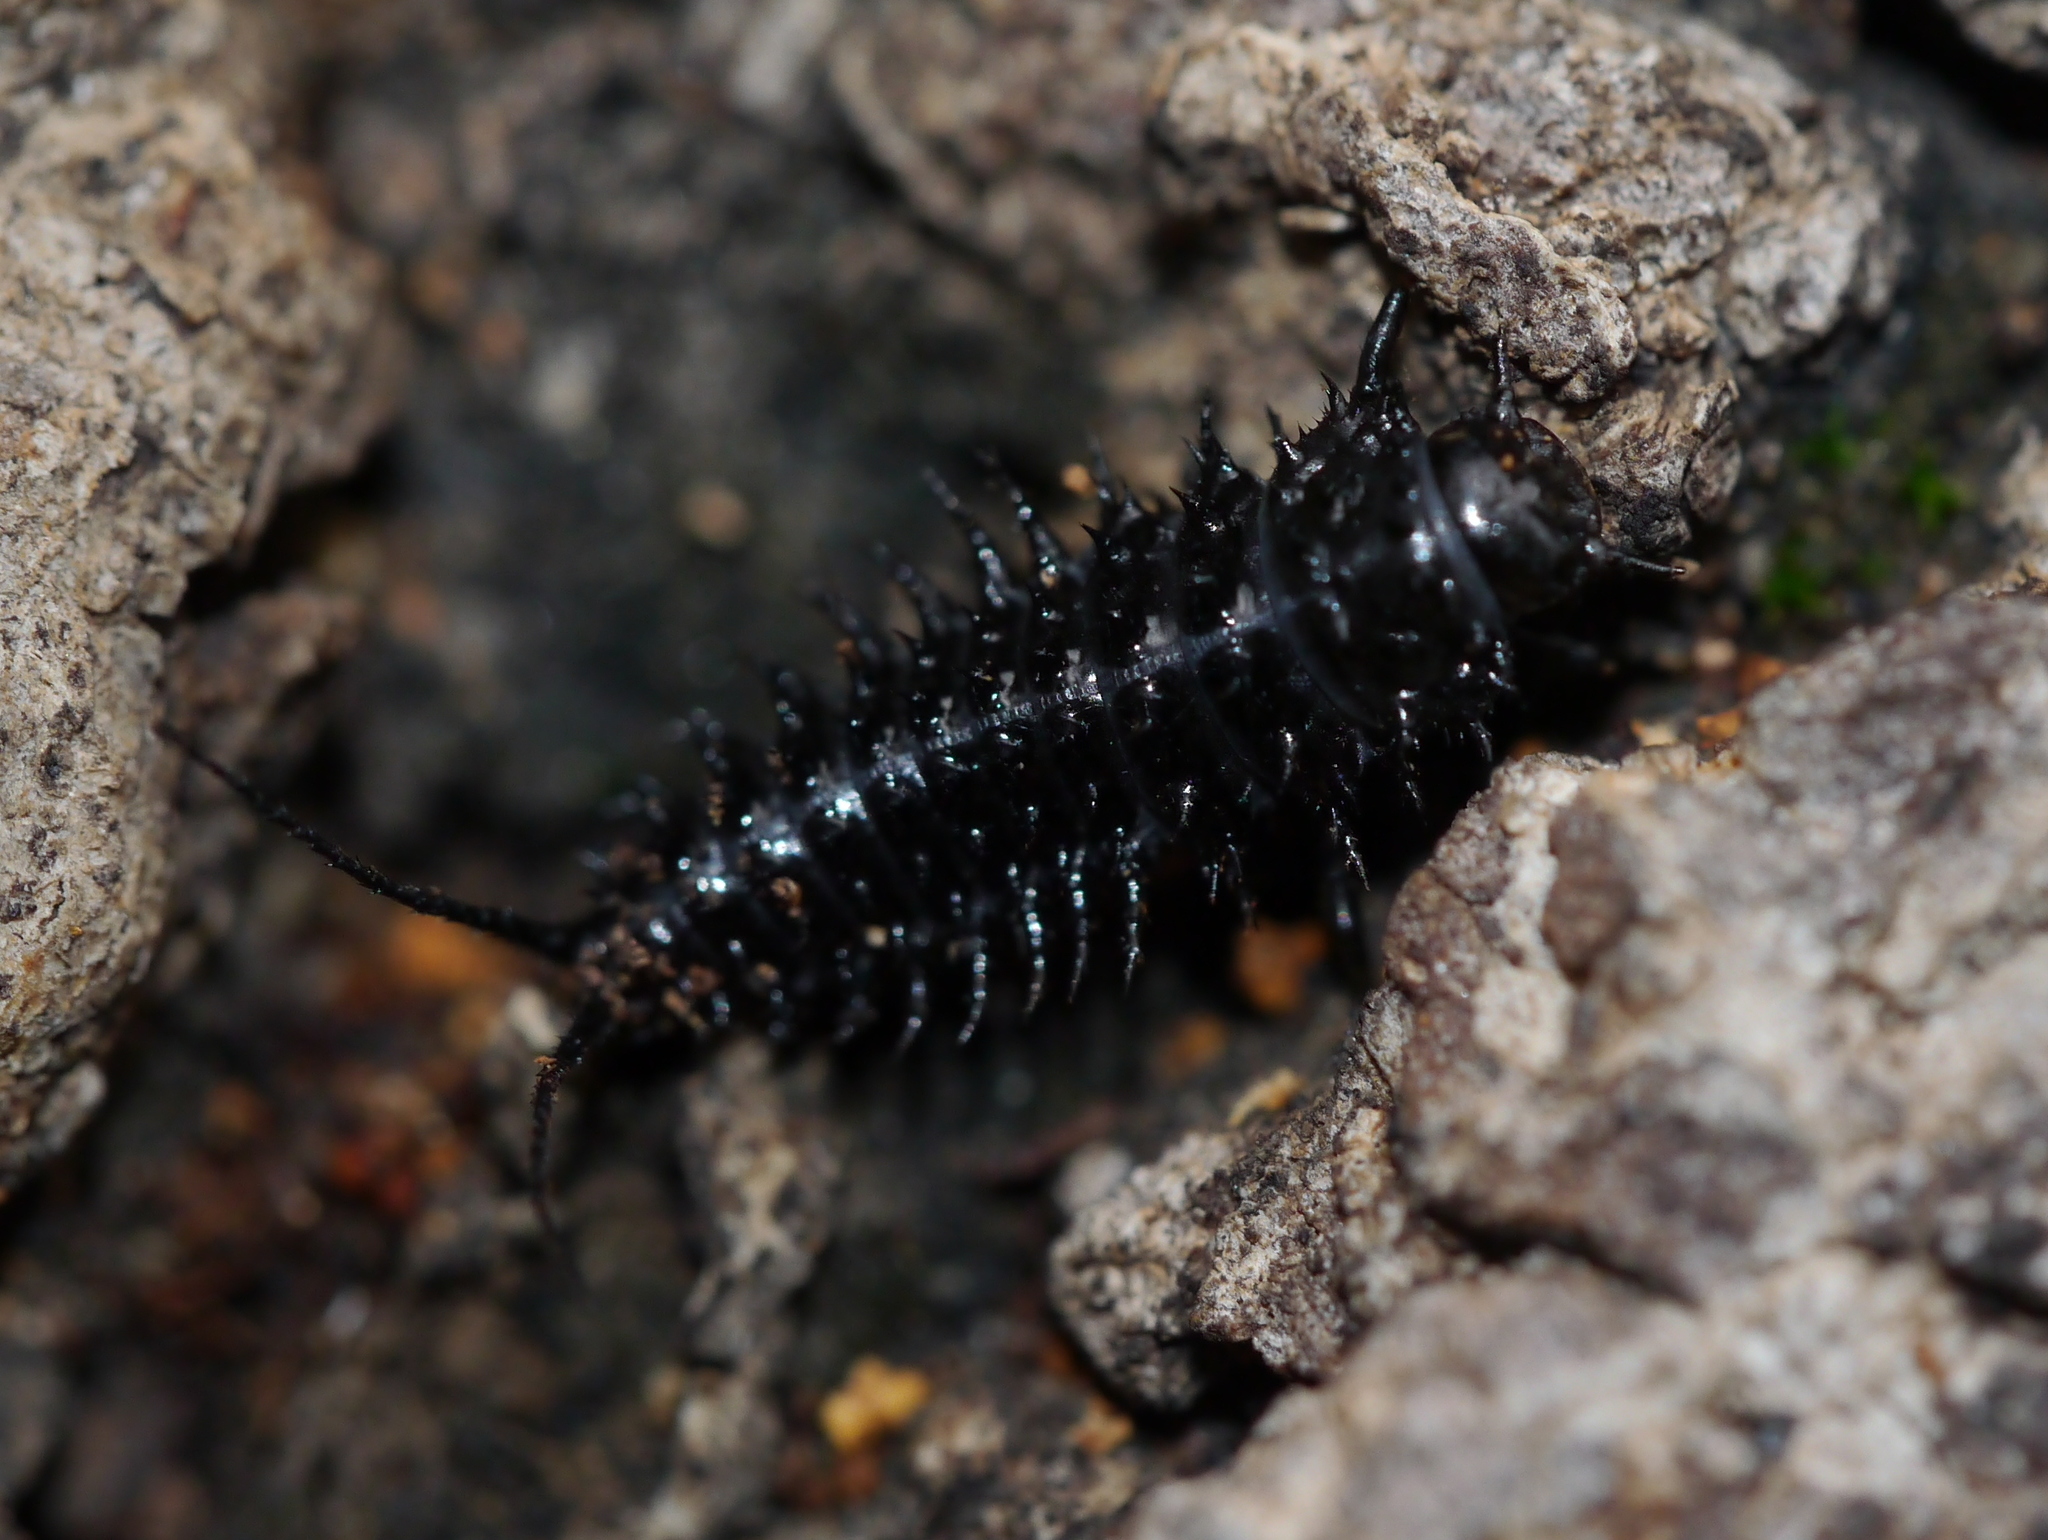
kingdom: Animalia
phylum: Arthropoda
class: Insecta
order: Coleoptera
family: Erotylidae
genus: Gibbifer
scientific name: Gibbifer californicus
